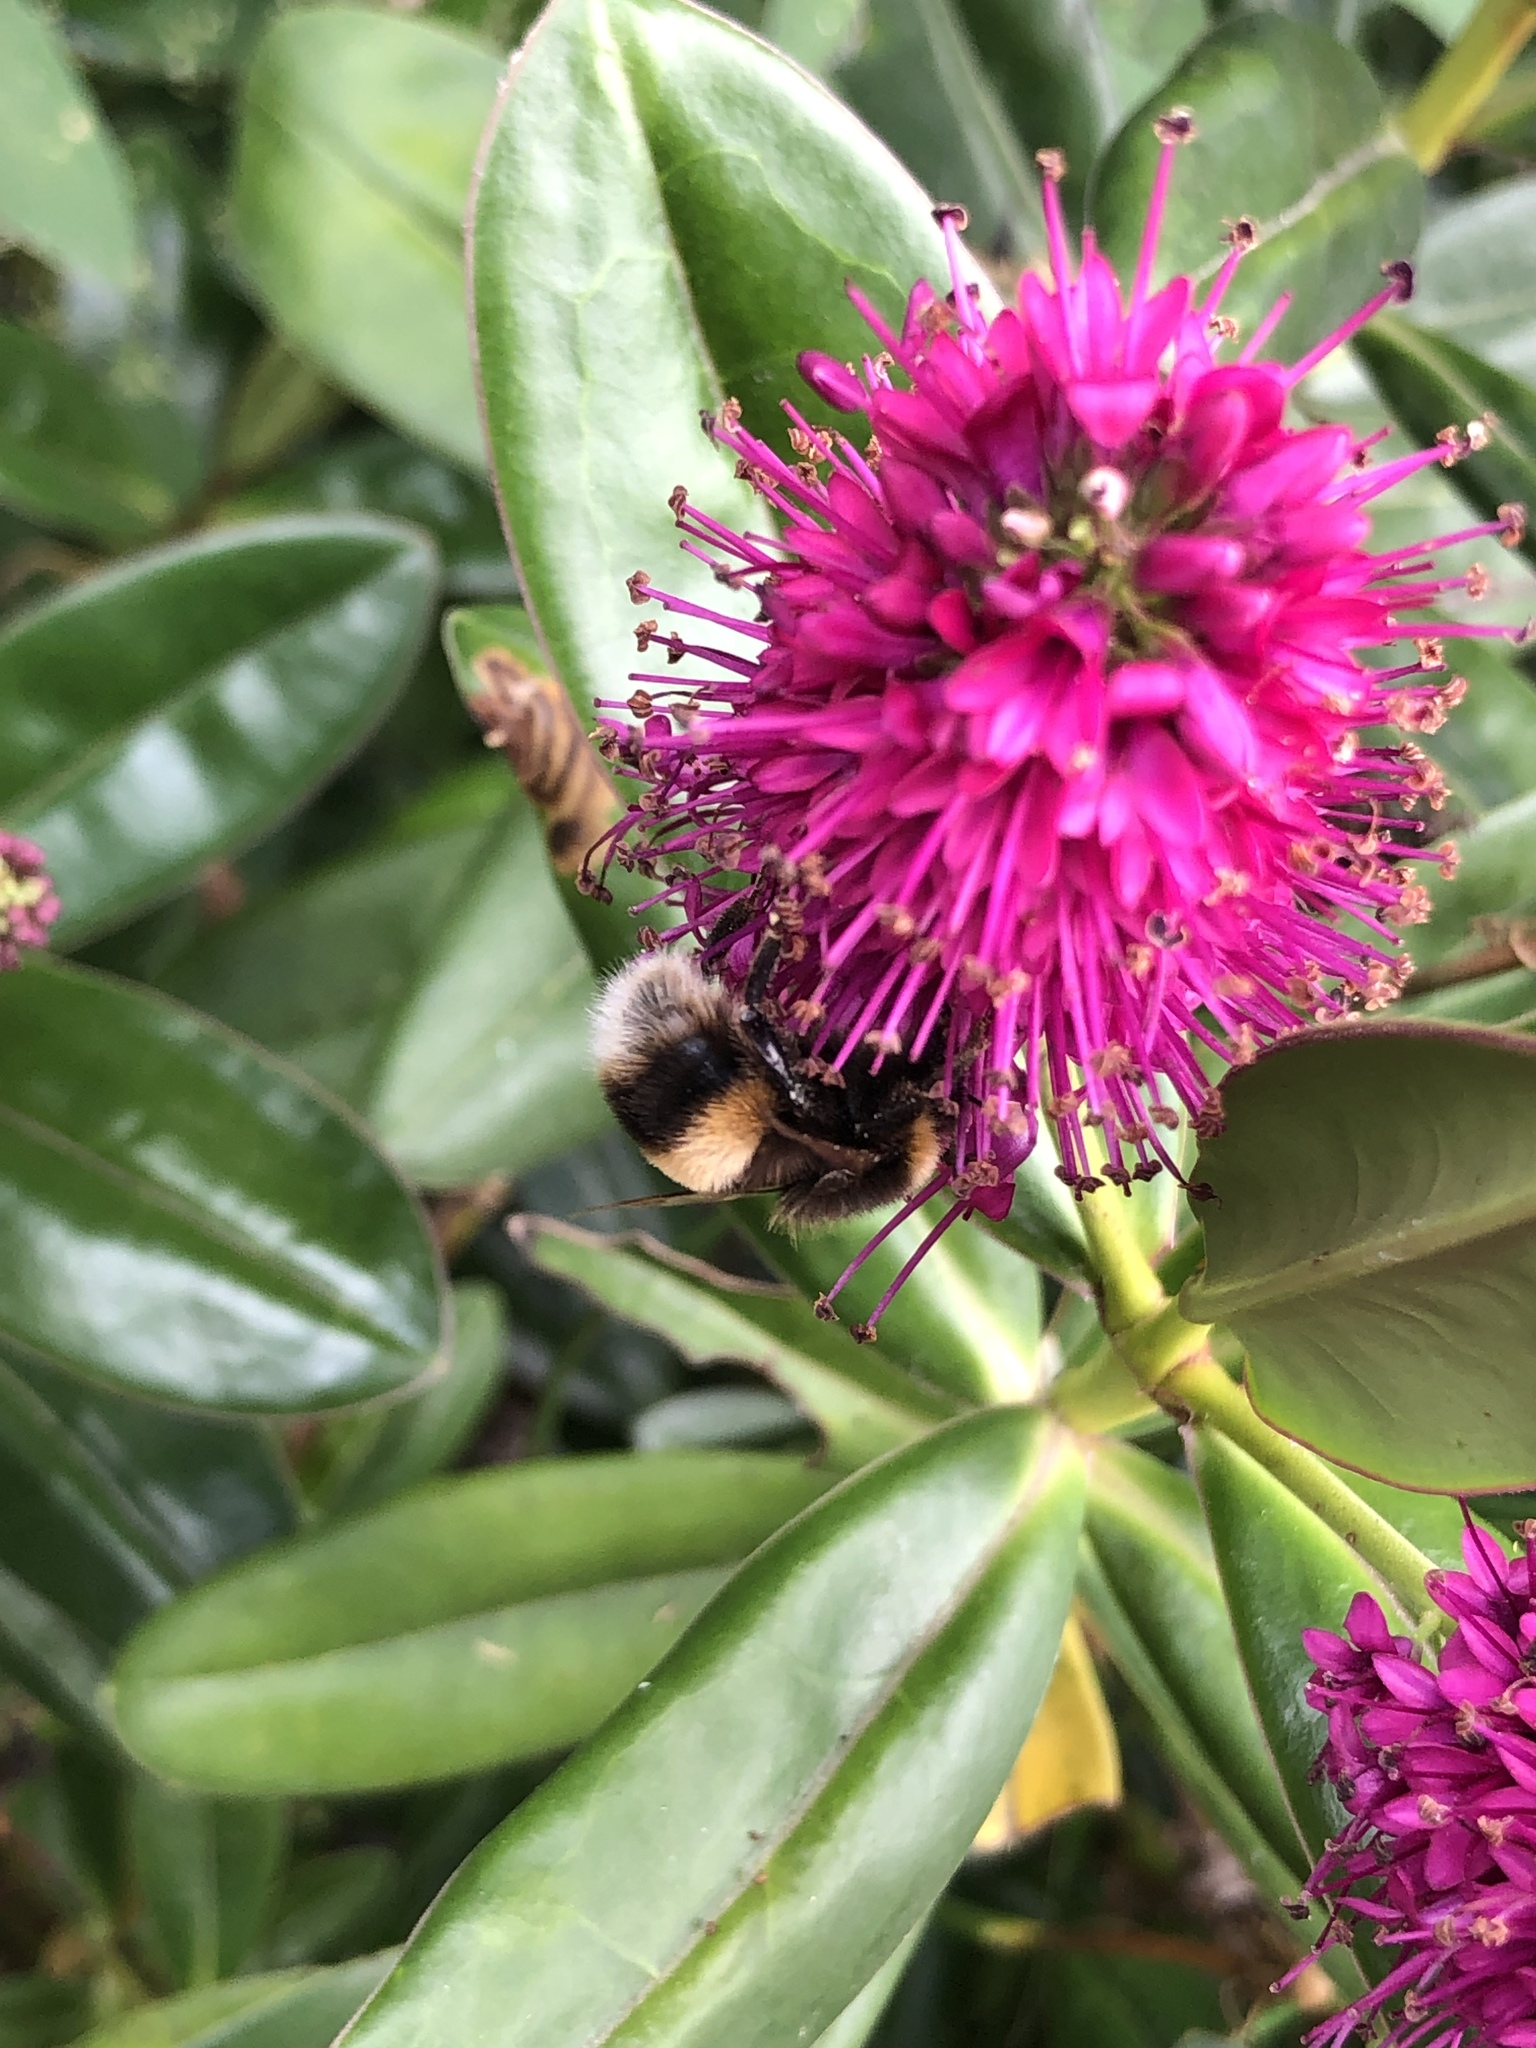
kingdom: Animalia
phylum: Arthropoda
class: Insecta
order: Hymenoptera
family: Apidae
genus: Bombus
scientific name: Bombus terrestris
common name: Buff-tailed bumblebee
